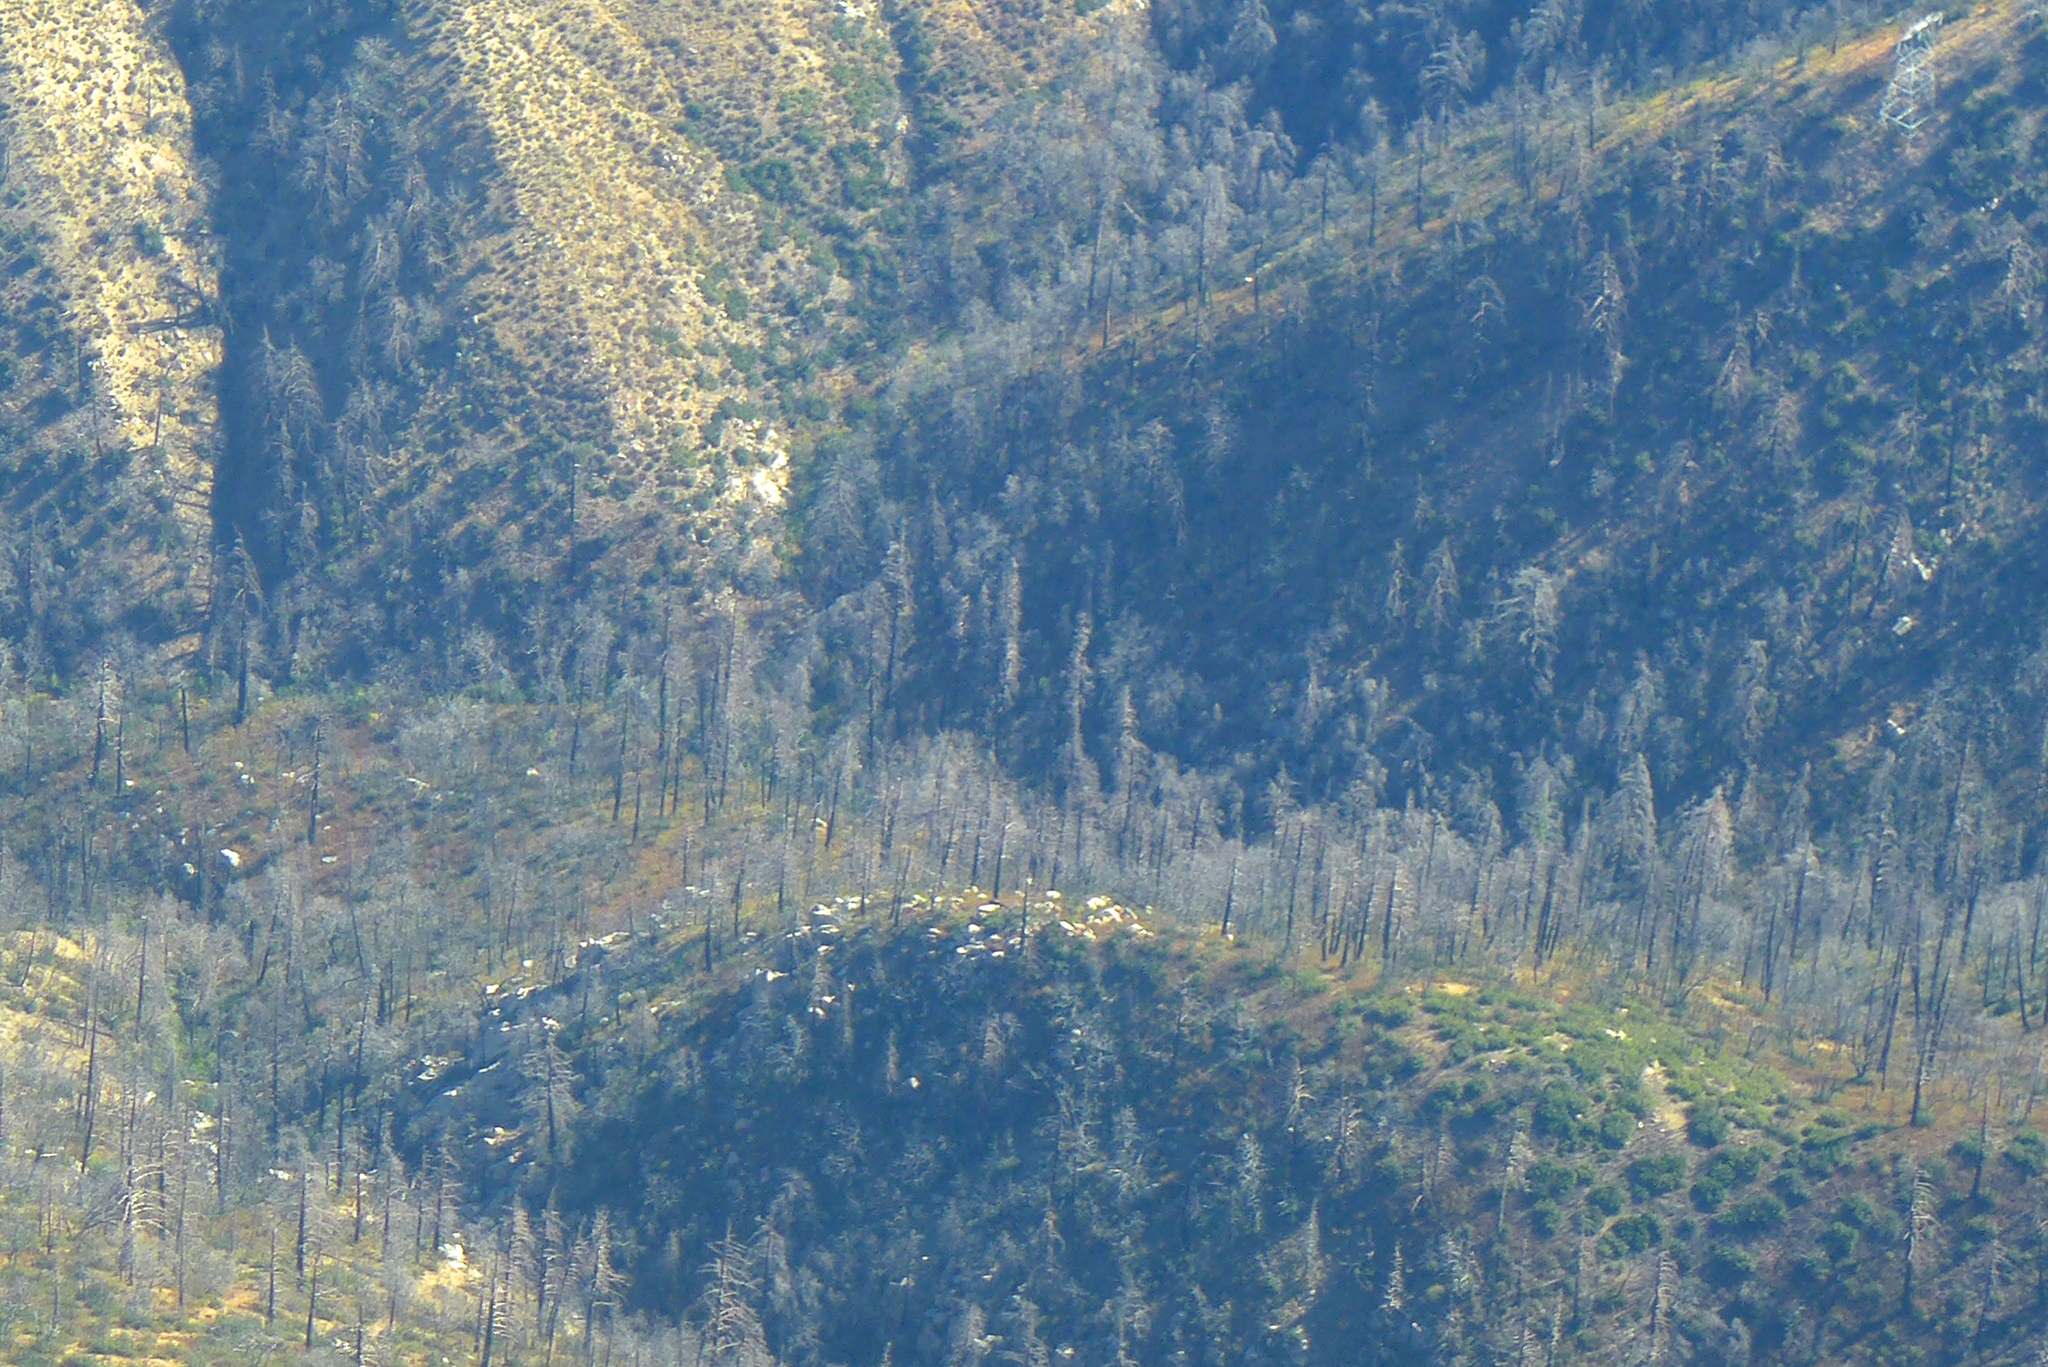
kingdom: Plantae
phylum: Tracheophyta
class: Pinopsida
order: Pinales
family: Pinaceae
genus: Pseudotsuga
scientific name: Pseudotsuga macrocarpa
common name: Big-cone douglas-fir
